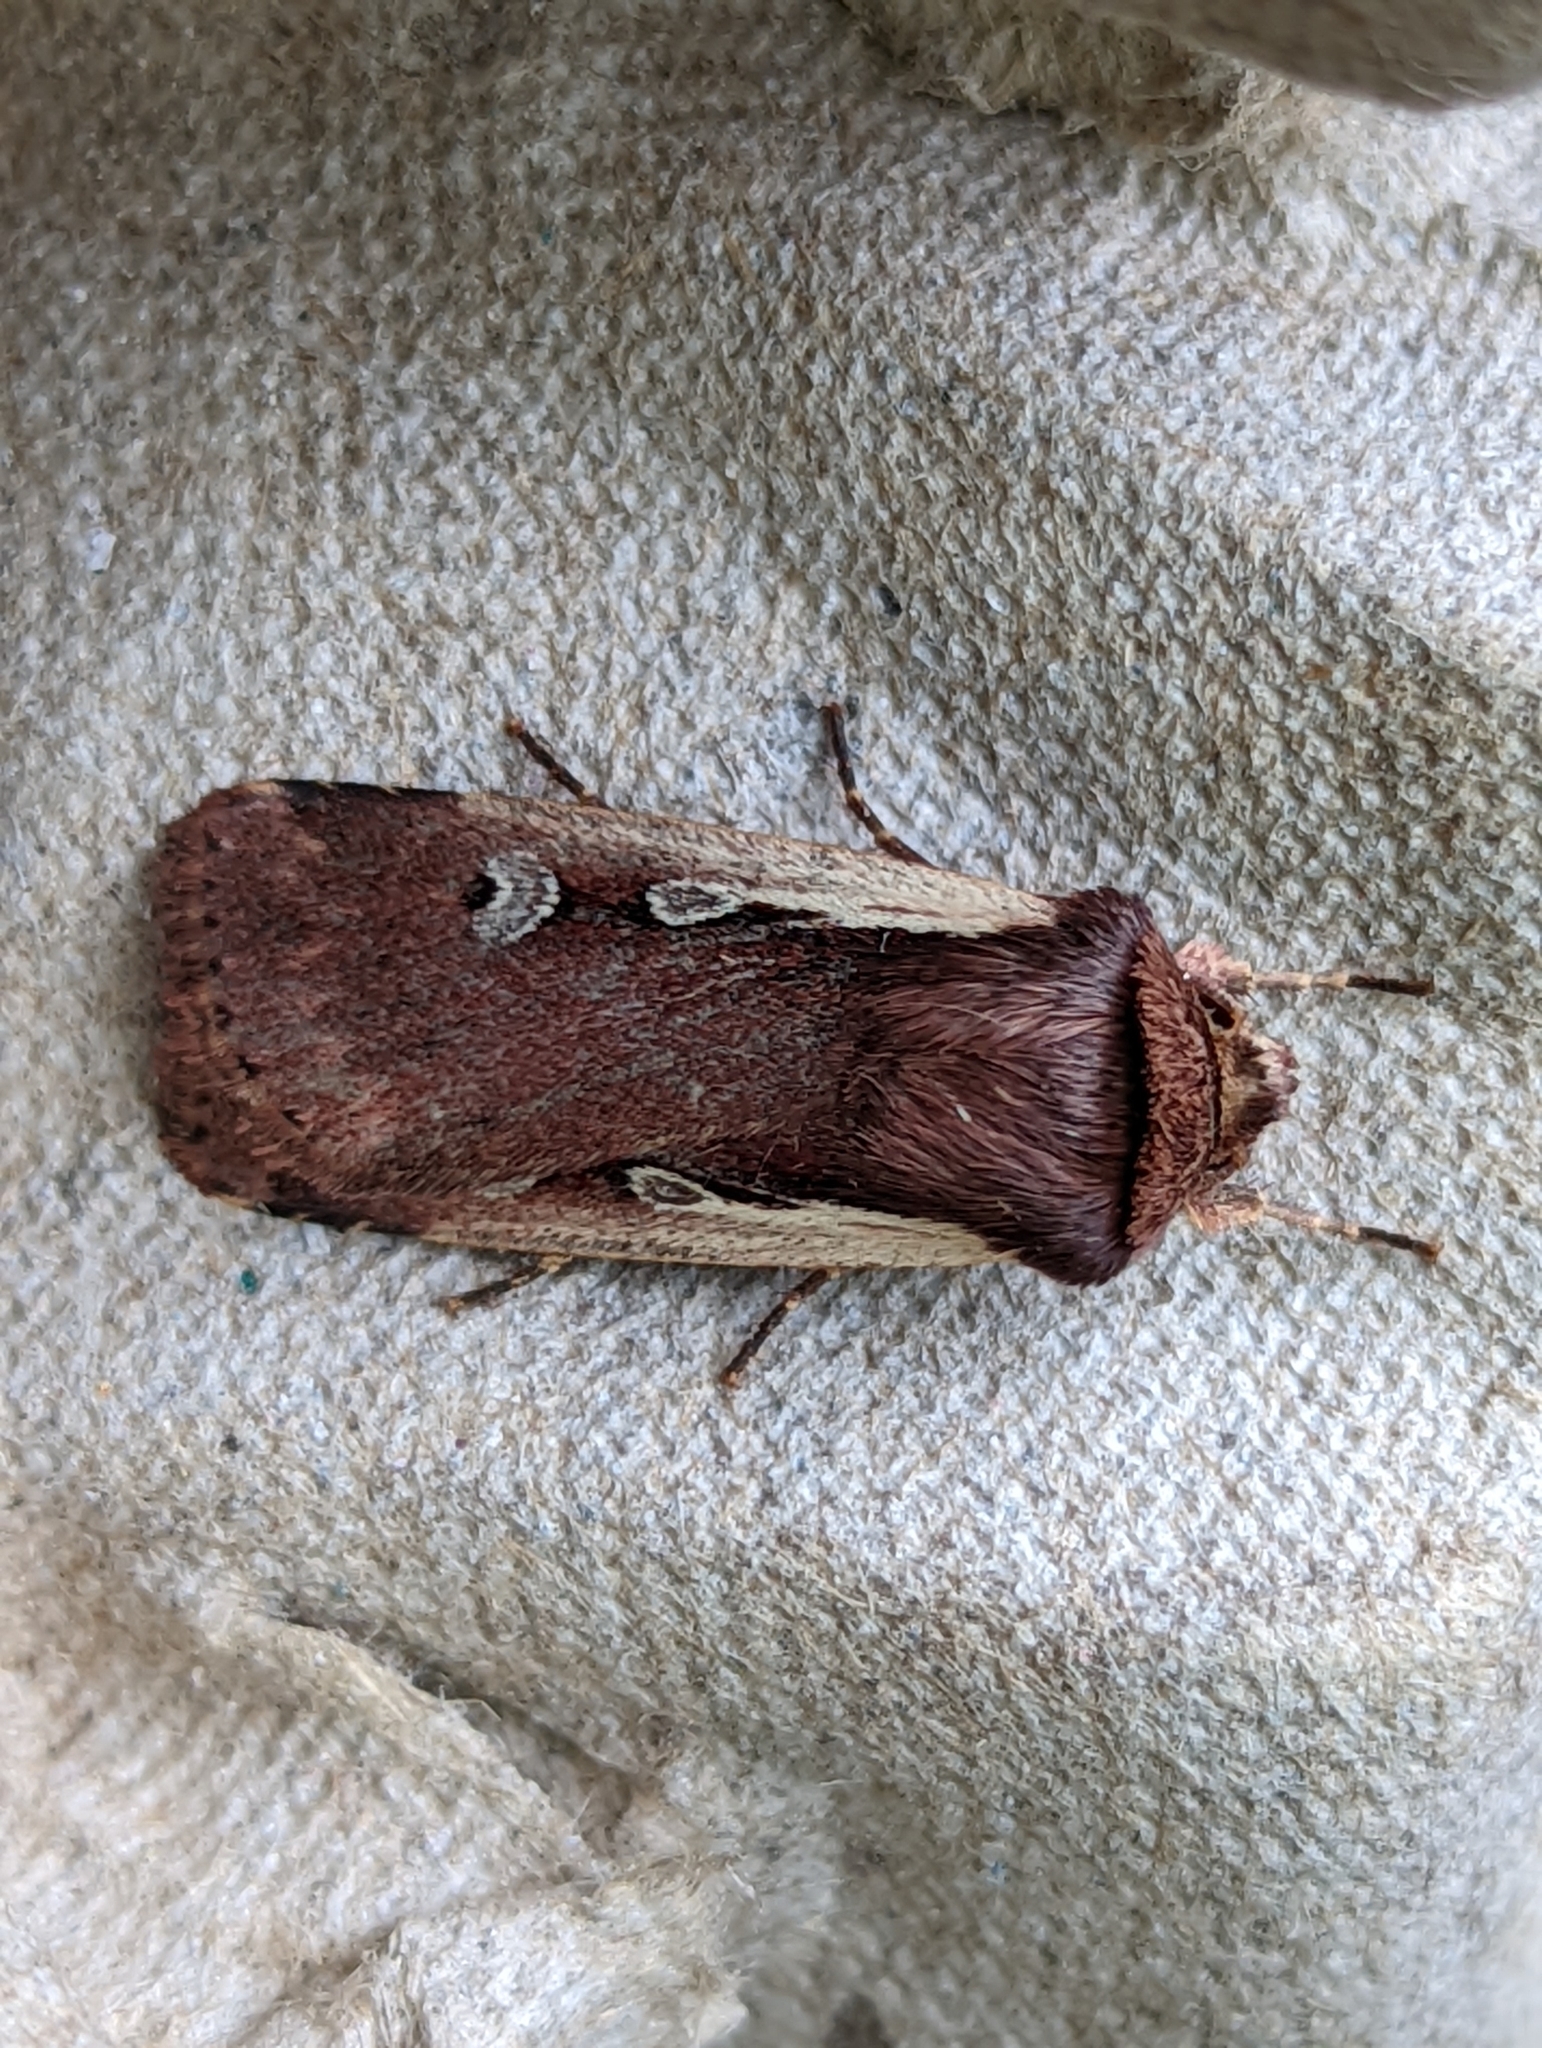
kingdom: Animalia
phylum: Arthropoda
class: Insecta
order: Lepidoptera
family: Noctuidae
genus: Ochropleura
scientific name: Ochropleura plecta
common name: Flame shoulder
